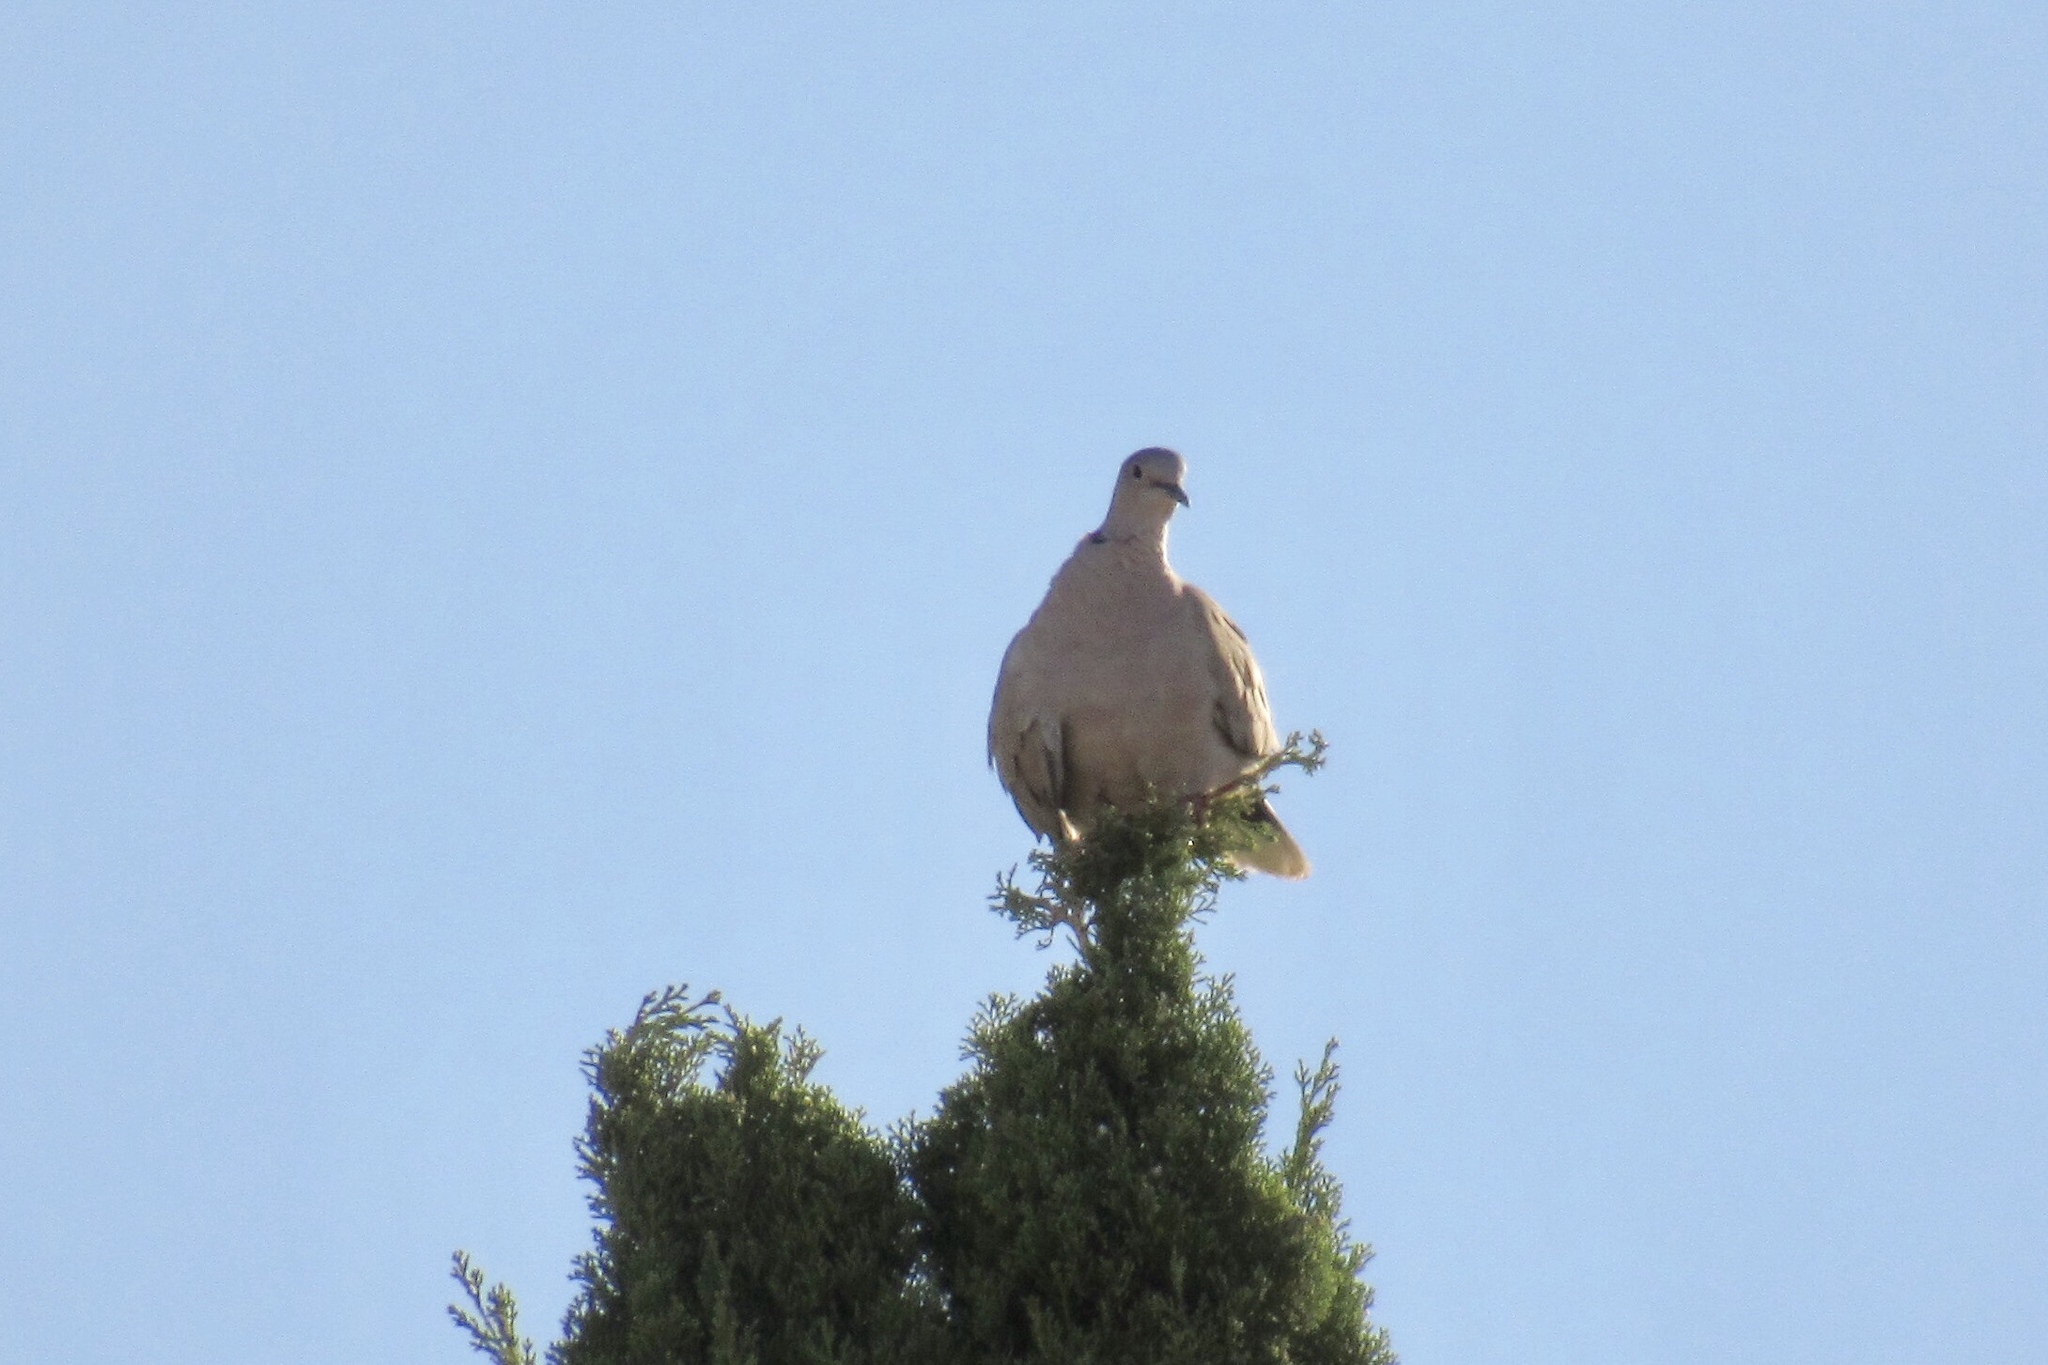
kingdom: Animalia
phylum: Chordata
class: Aves
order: Columbiformes
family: Columbidae
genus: Streptopelia
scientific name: Streptopelia decaocto
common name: Eurasian collared dove
